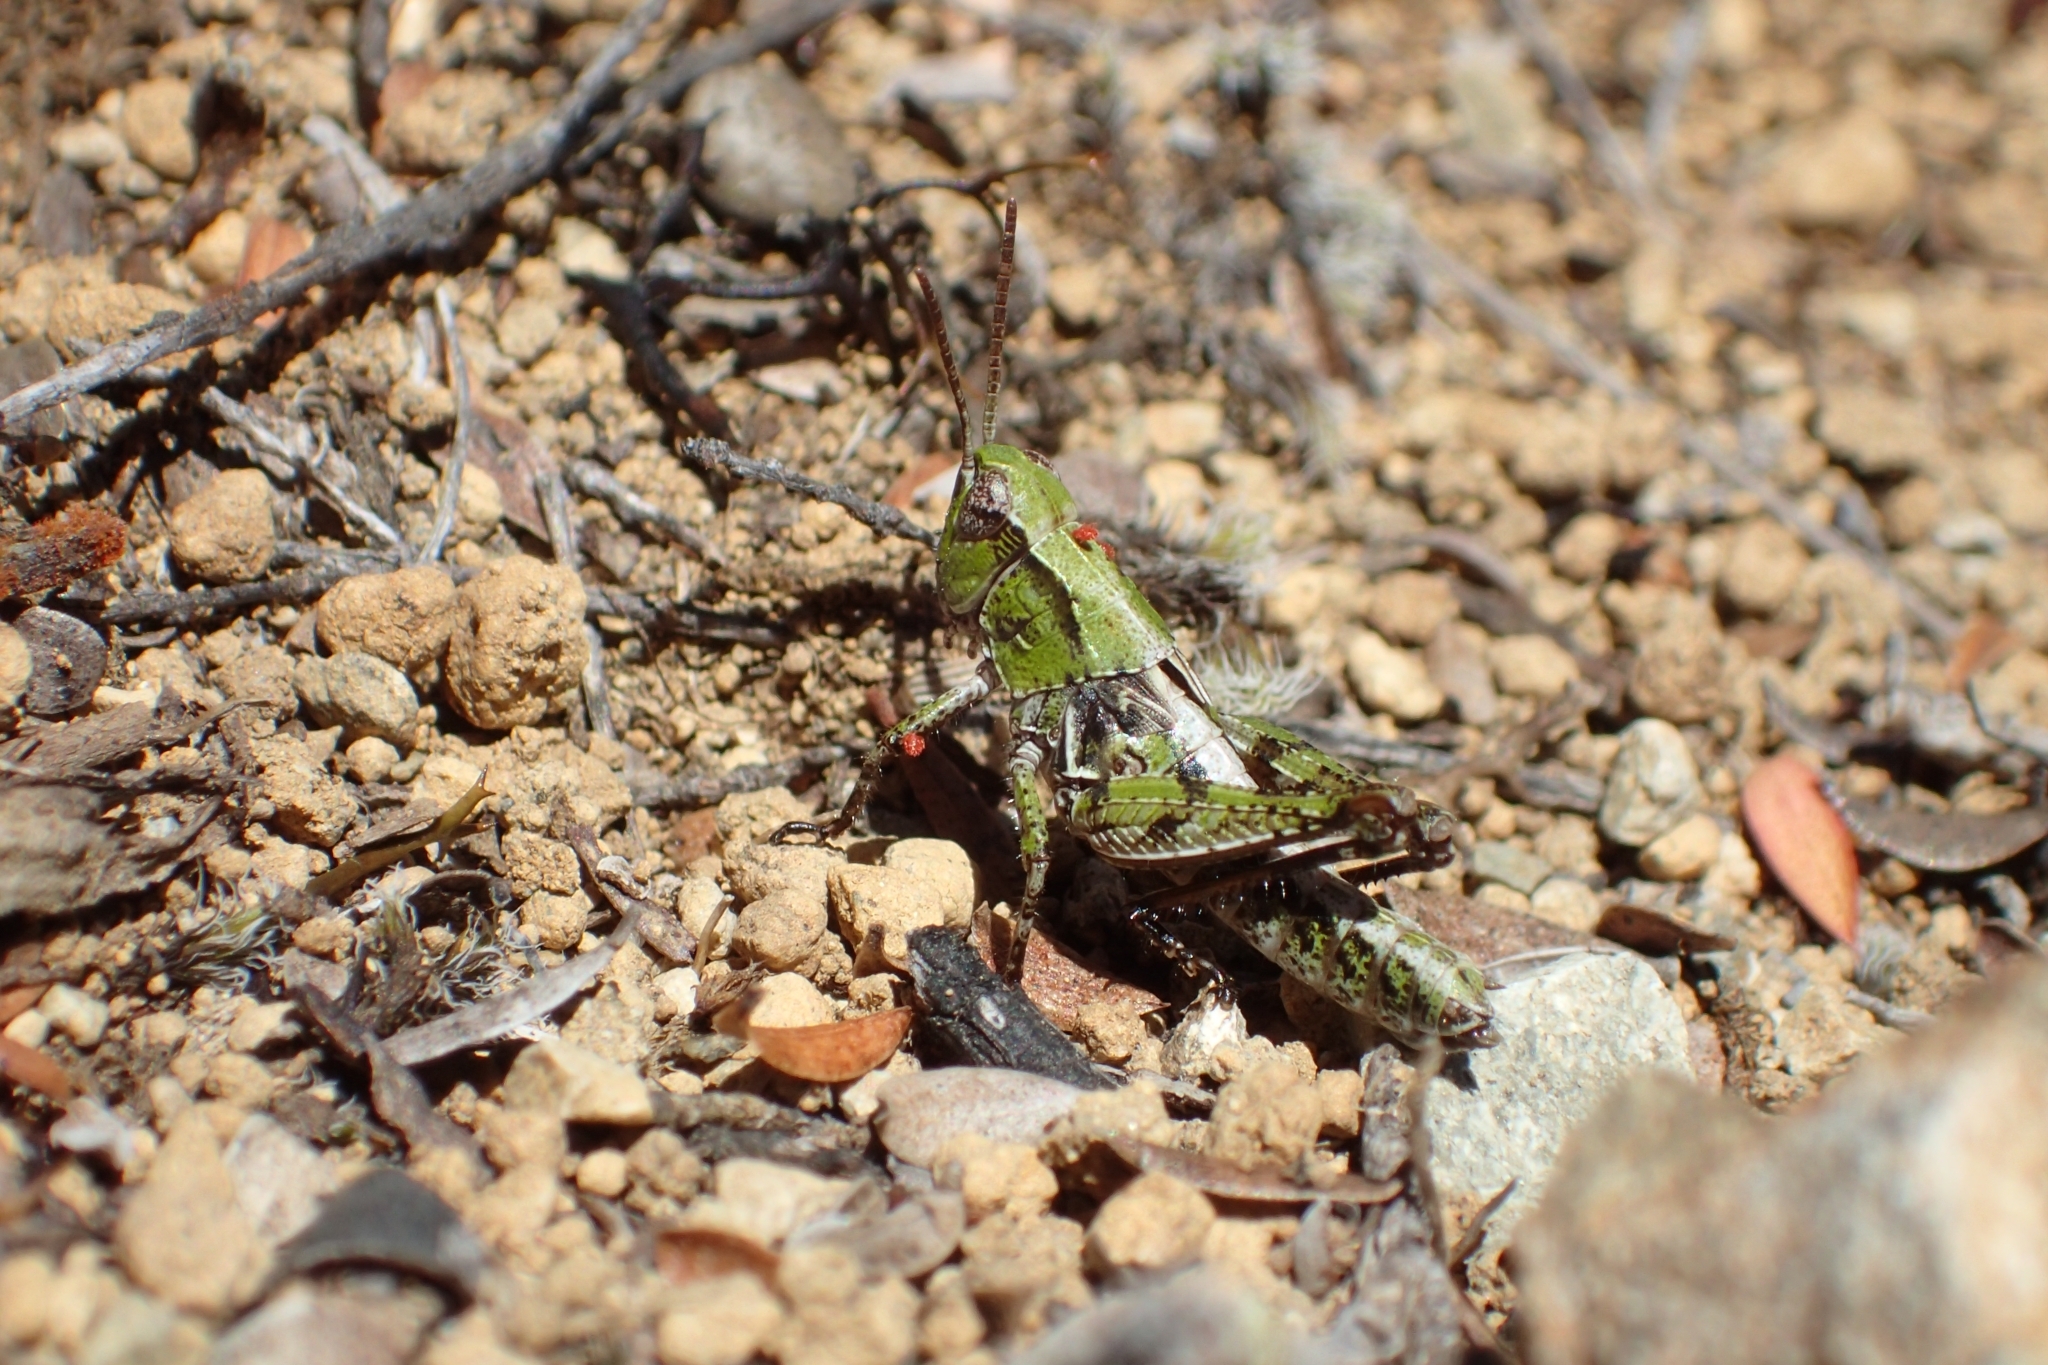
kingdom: Animalia
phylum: Arthropoda
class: Insecta
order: Orthoptera
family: Acrididae
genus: Phaulacridium
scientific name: Phaulacridium marginale
